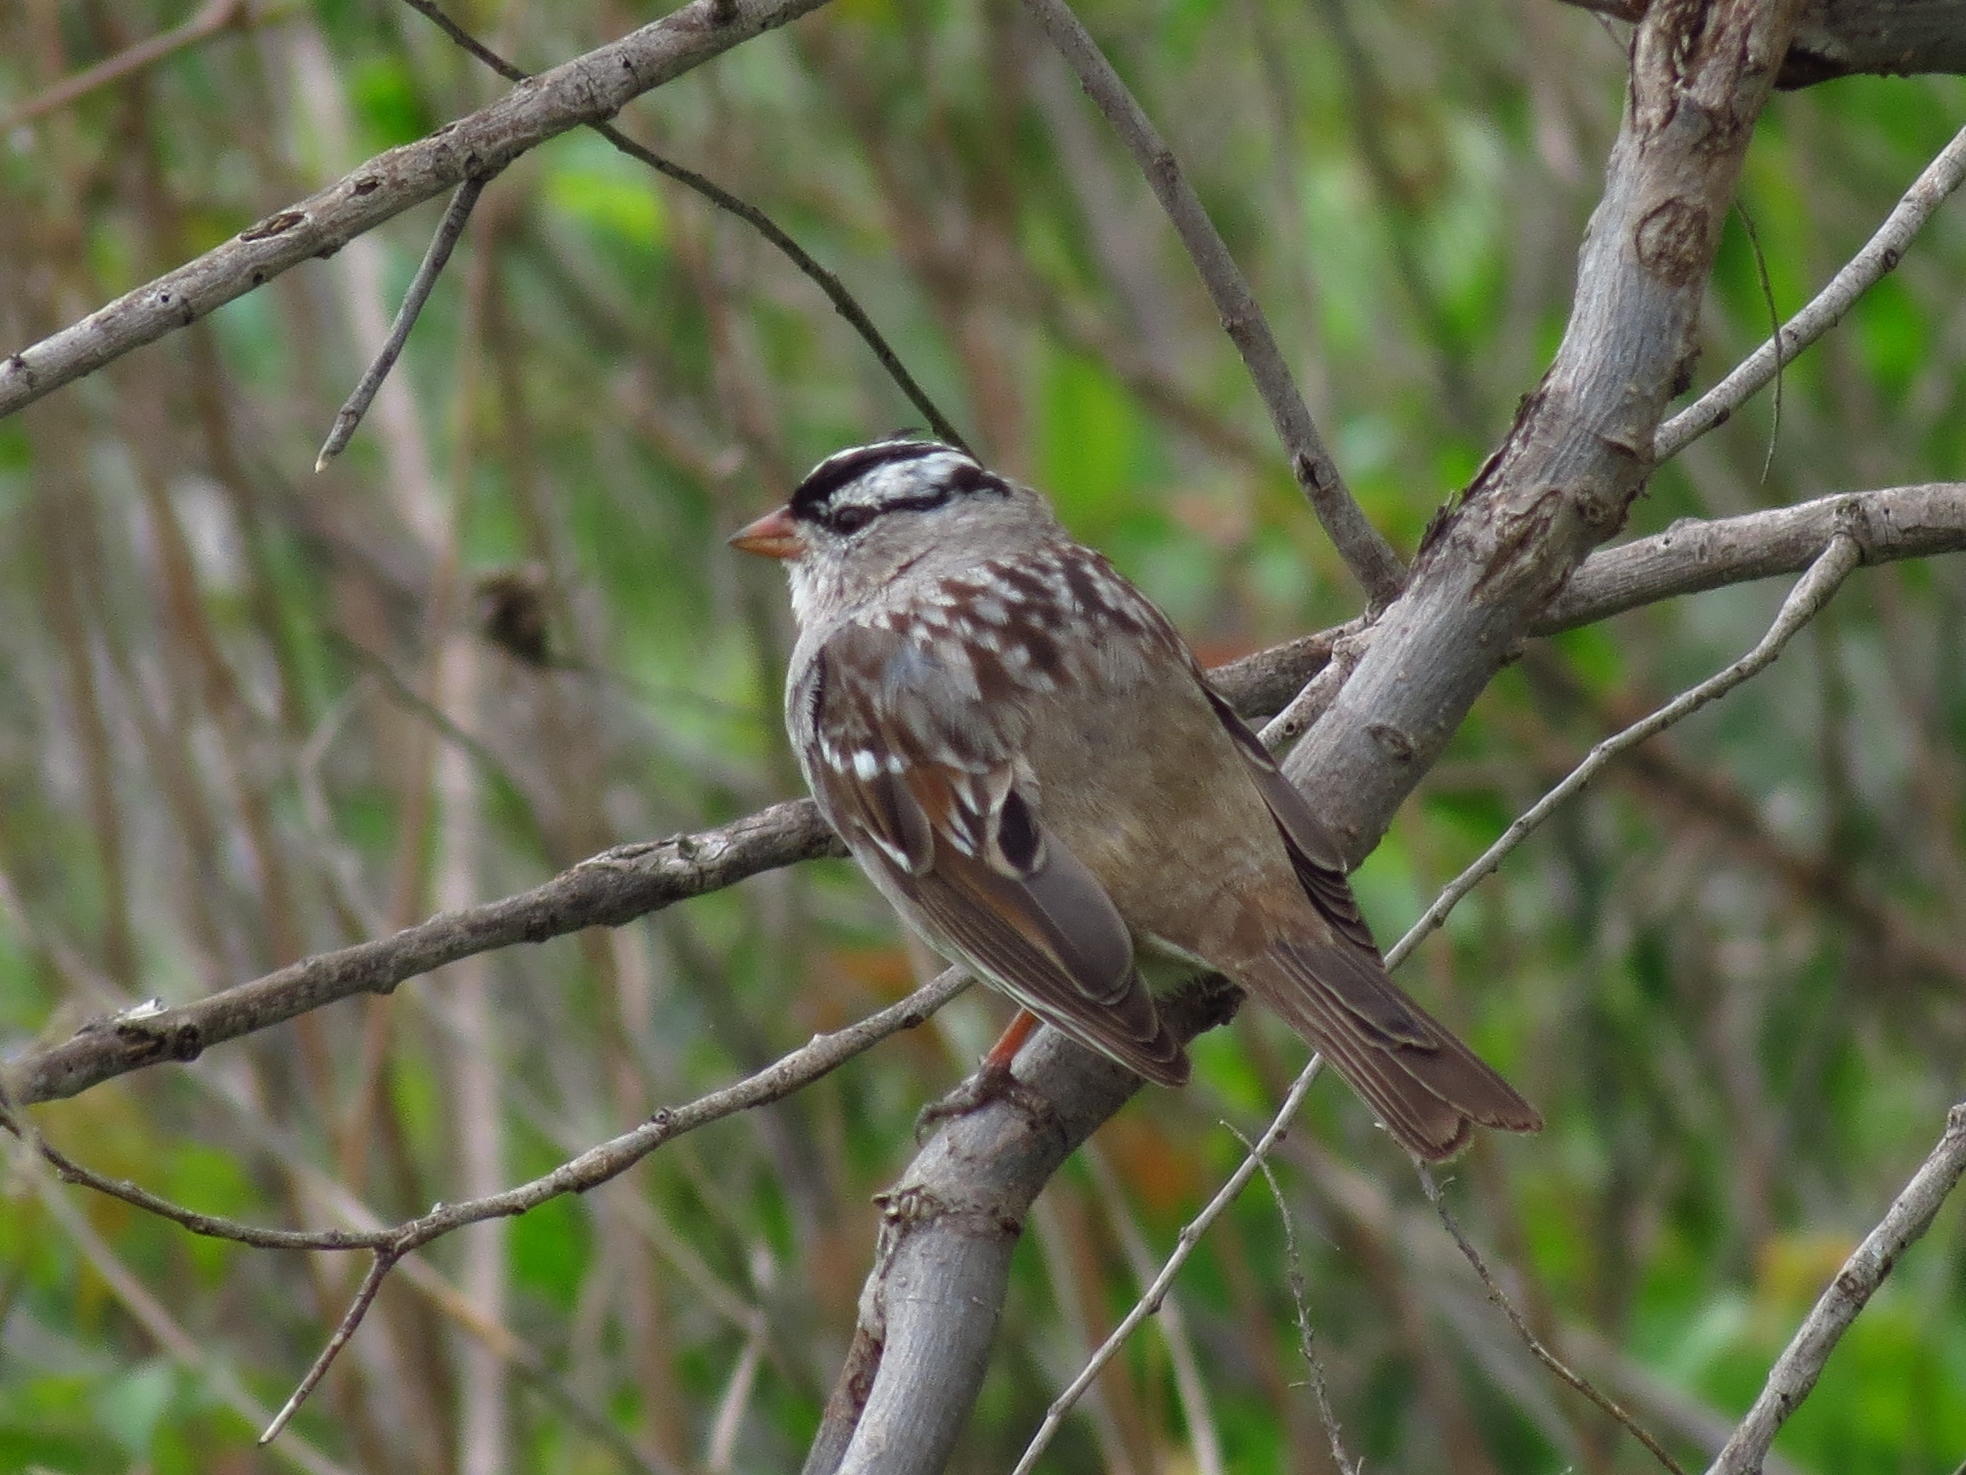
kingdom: Animalia
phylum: Chordata
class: Aves
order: Passeriformes
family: Passerellidae
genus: Zonotrichia
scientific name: Zonotrichia leucophrys
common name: White-crowned sparrow
